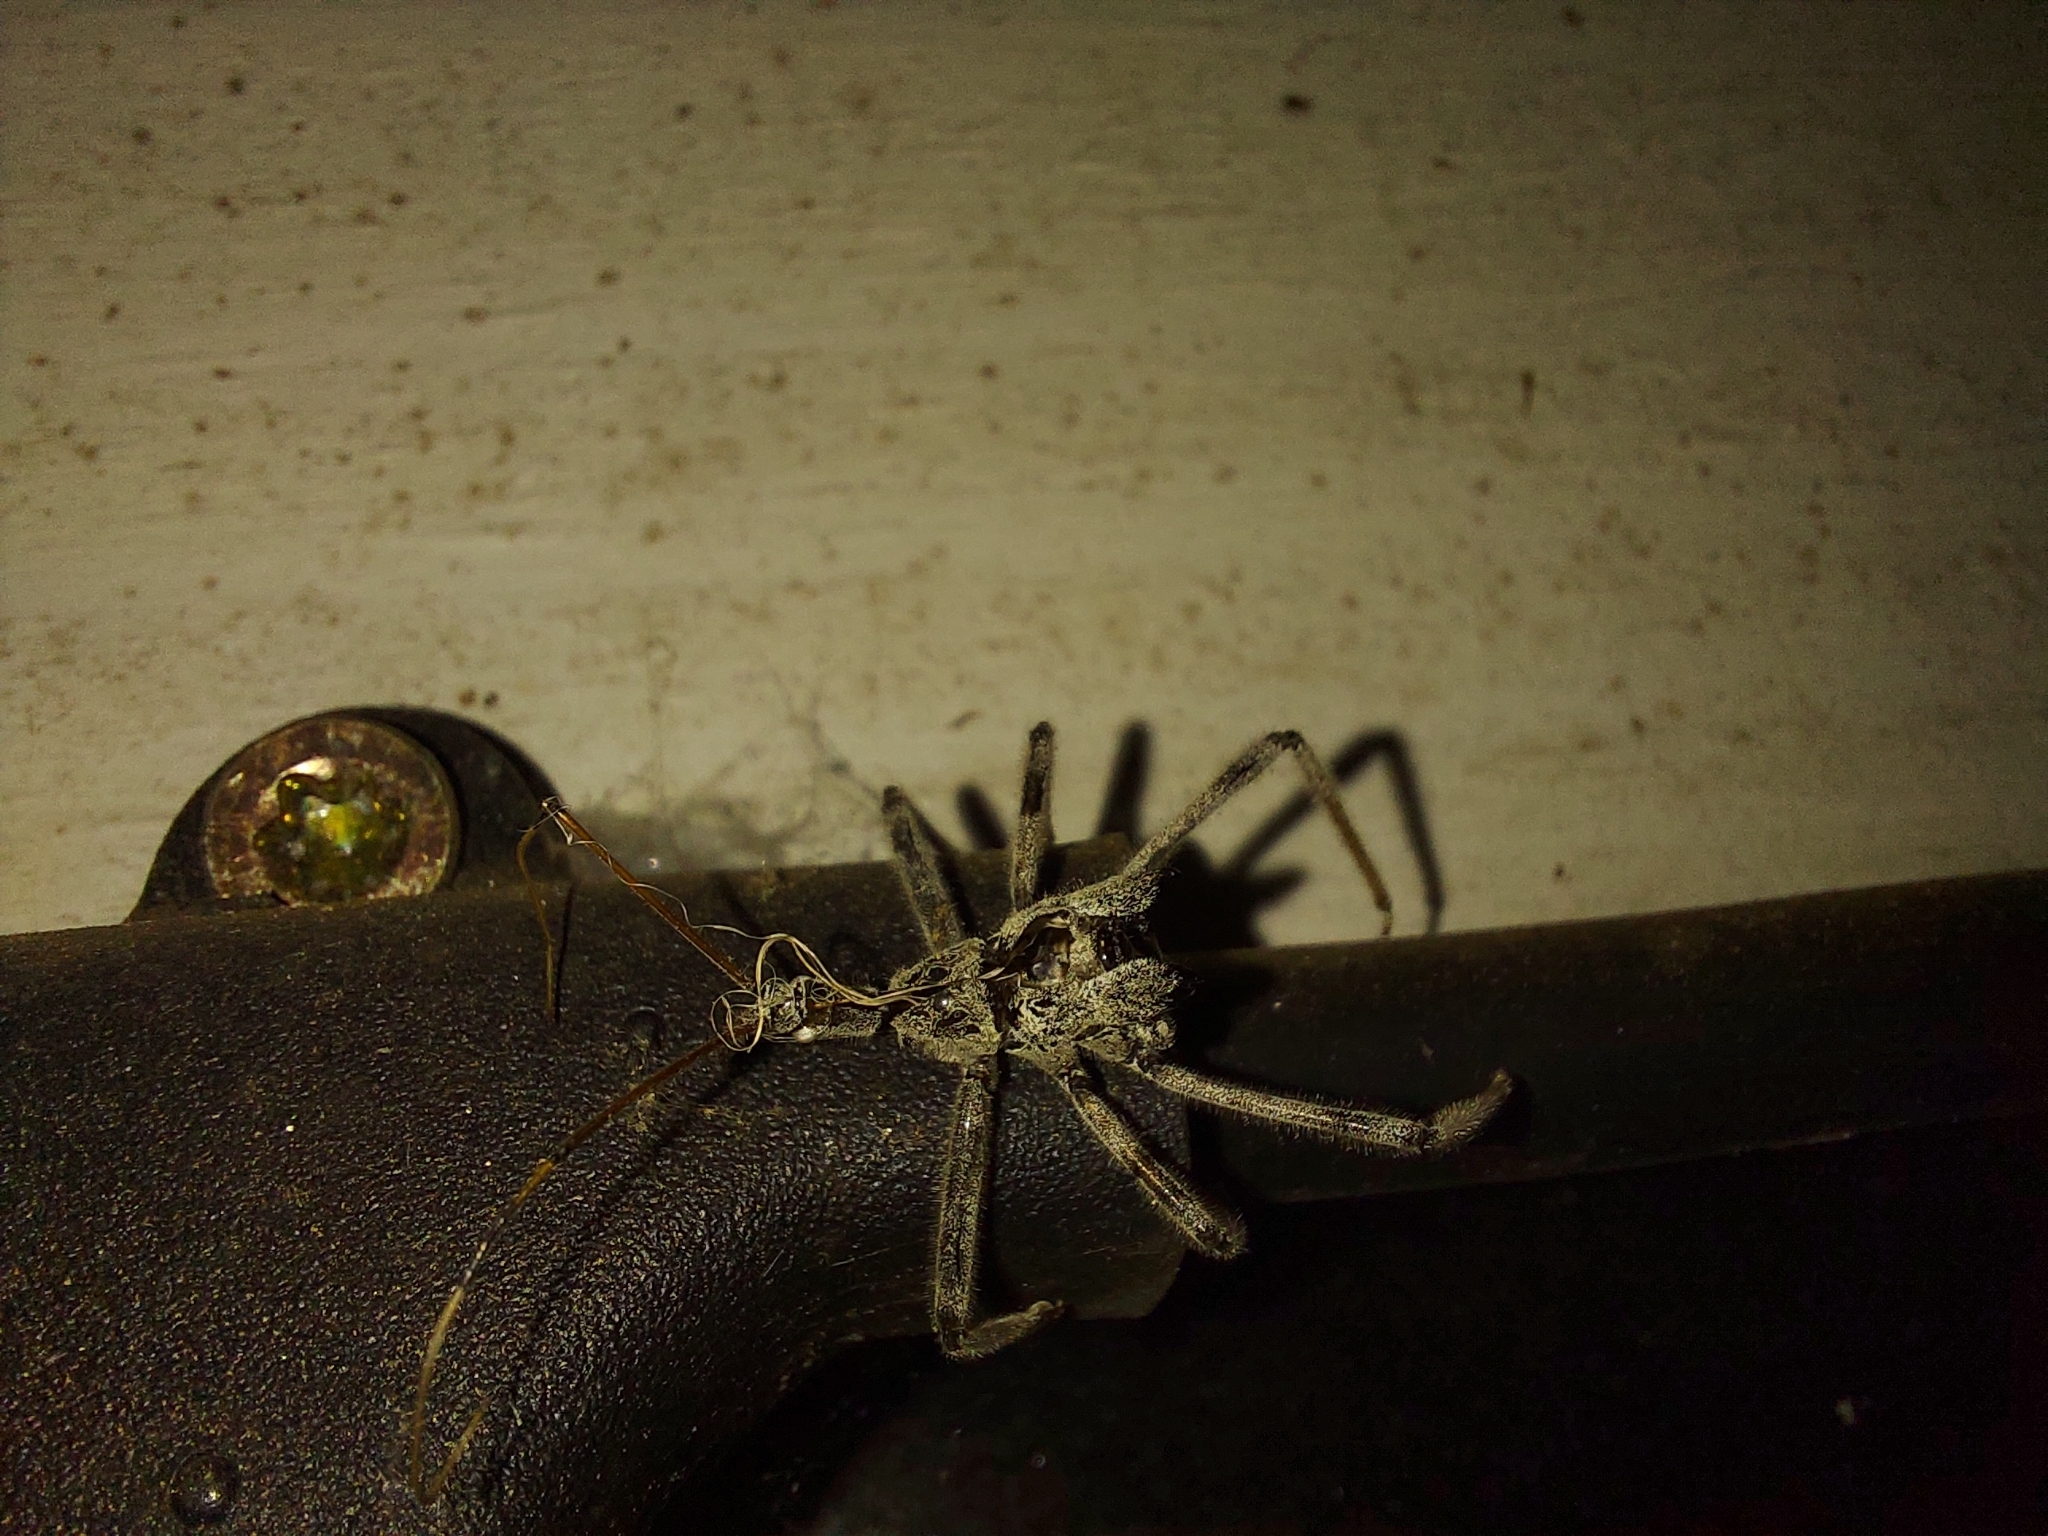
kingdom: Animalia
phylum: Arthropoda
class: Insecta
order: Hemiptera
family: Reduviidae
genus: Arilus
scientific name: Arilus cristatus
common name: North american wheel bug
